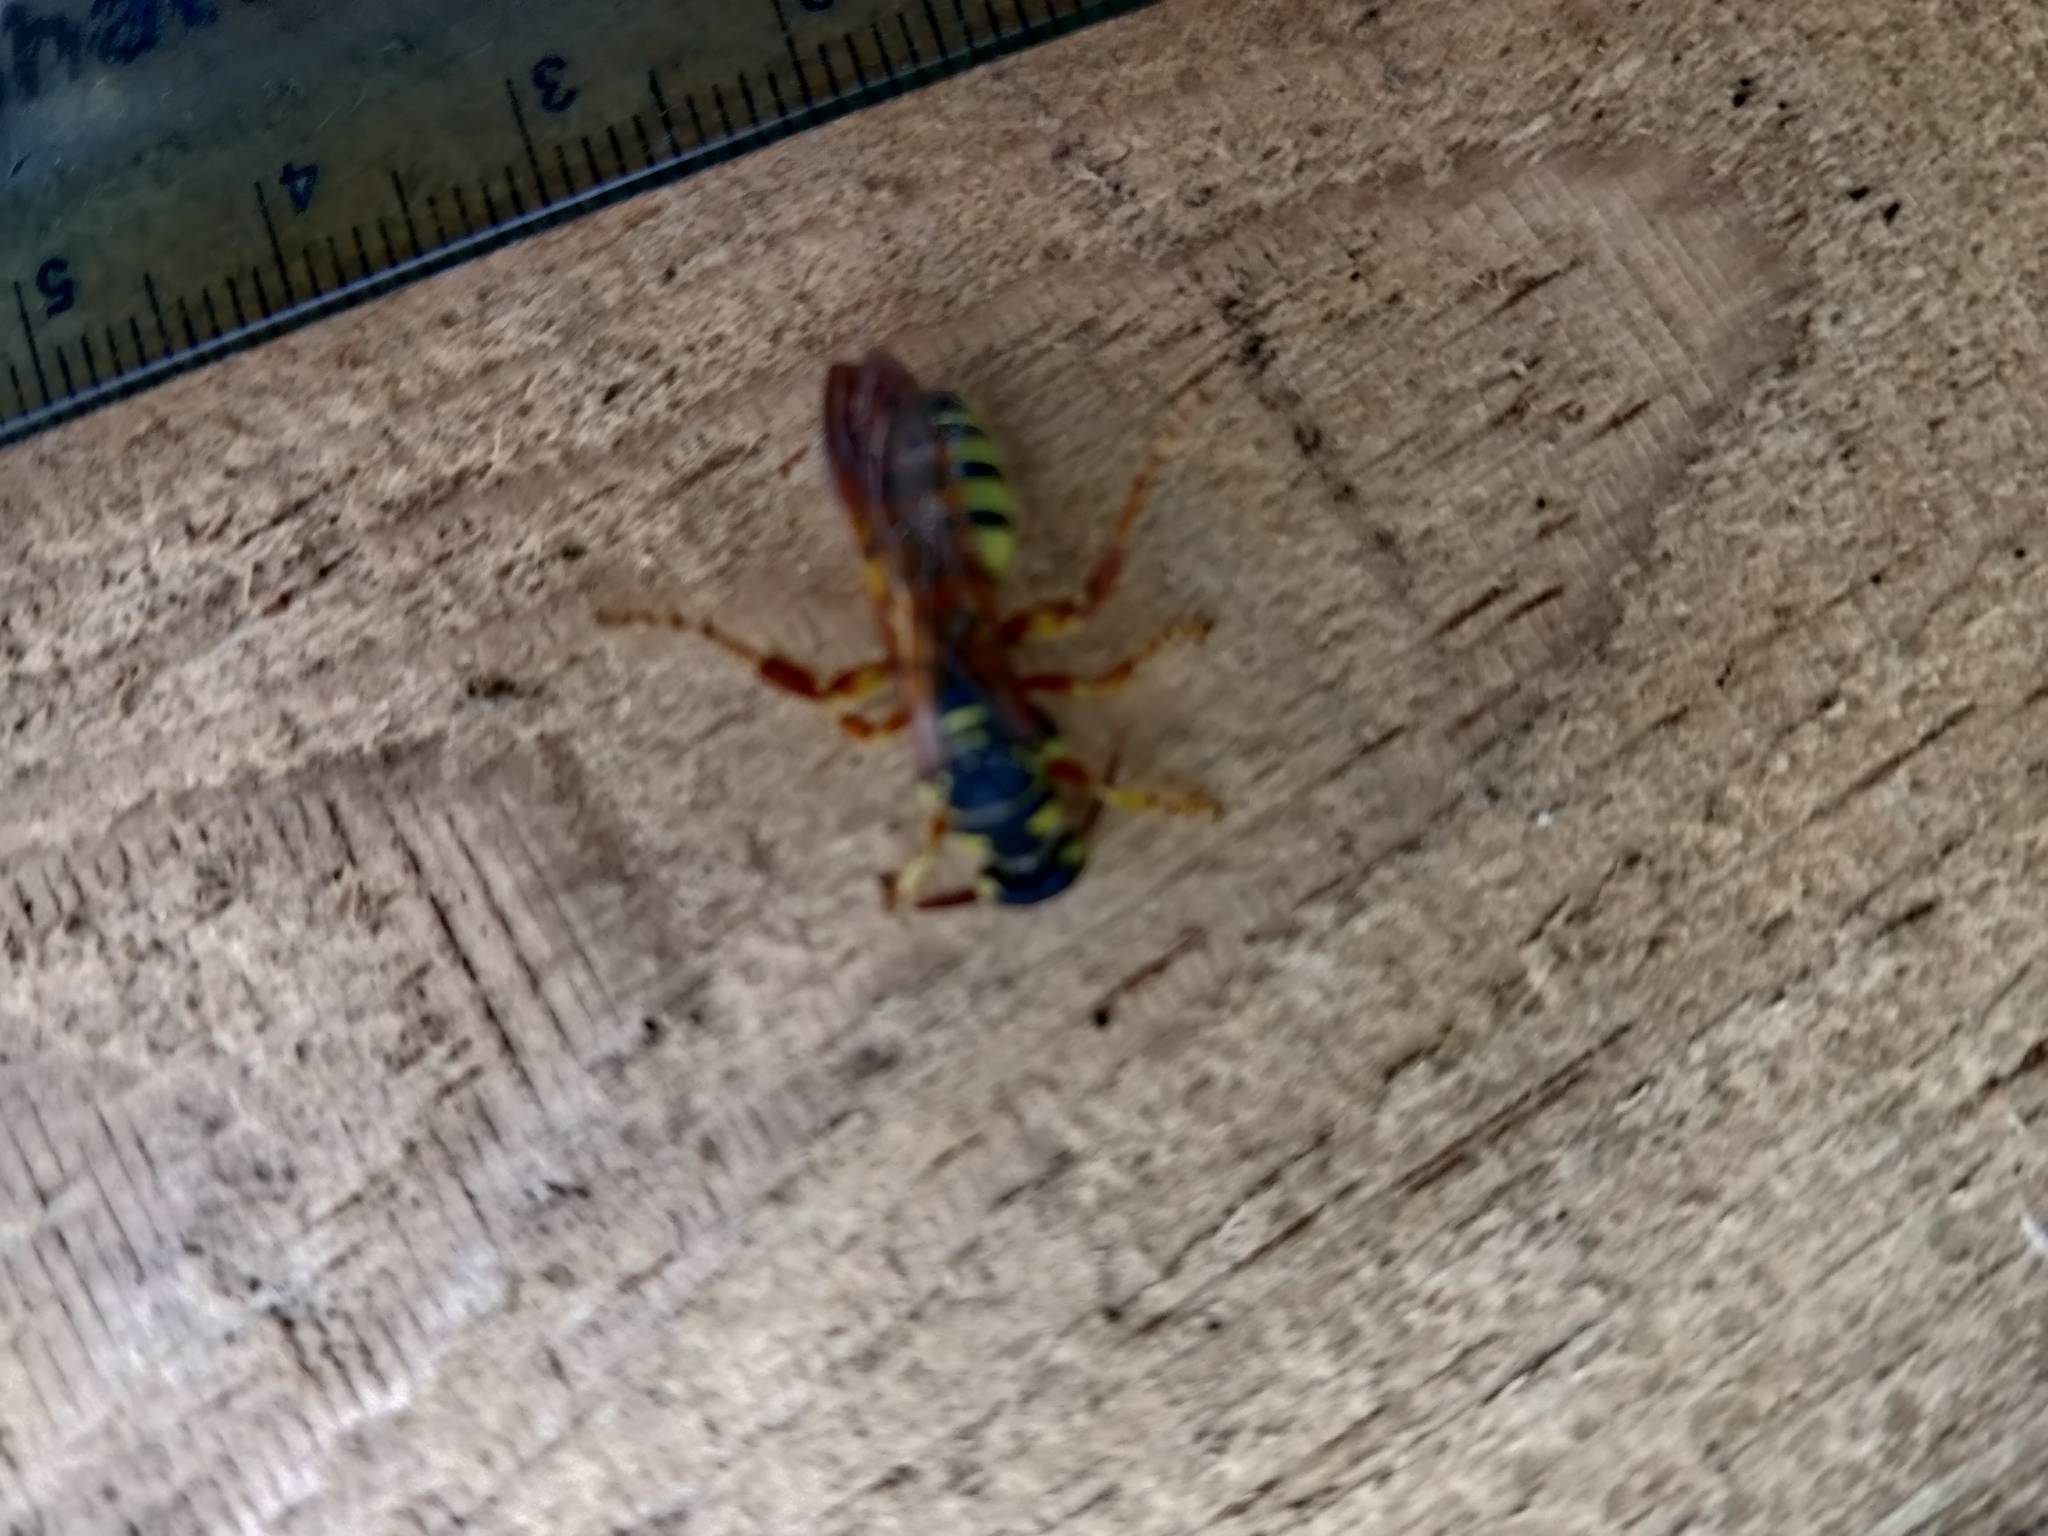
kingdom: Animalia
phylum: Arthropoda
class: Insecta
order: Hymenoptera
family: Tiphiidae
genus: Myzinum
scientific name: Myzinum quinquecinctum
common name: Five-banded thynnid wasp
